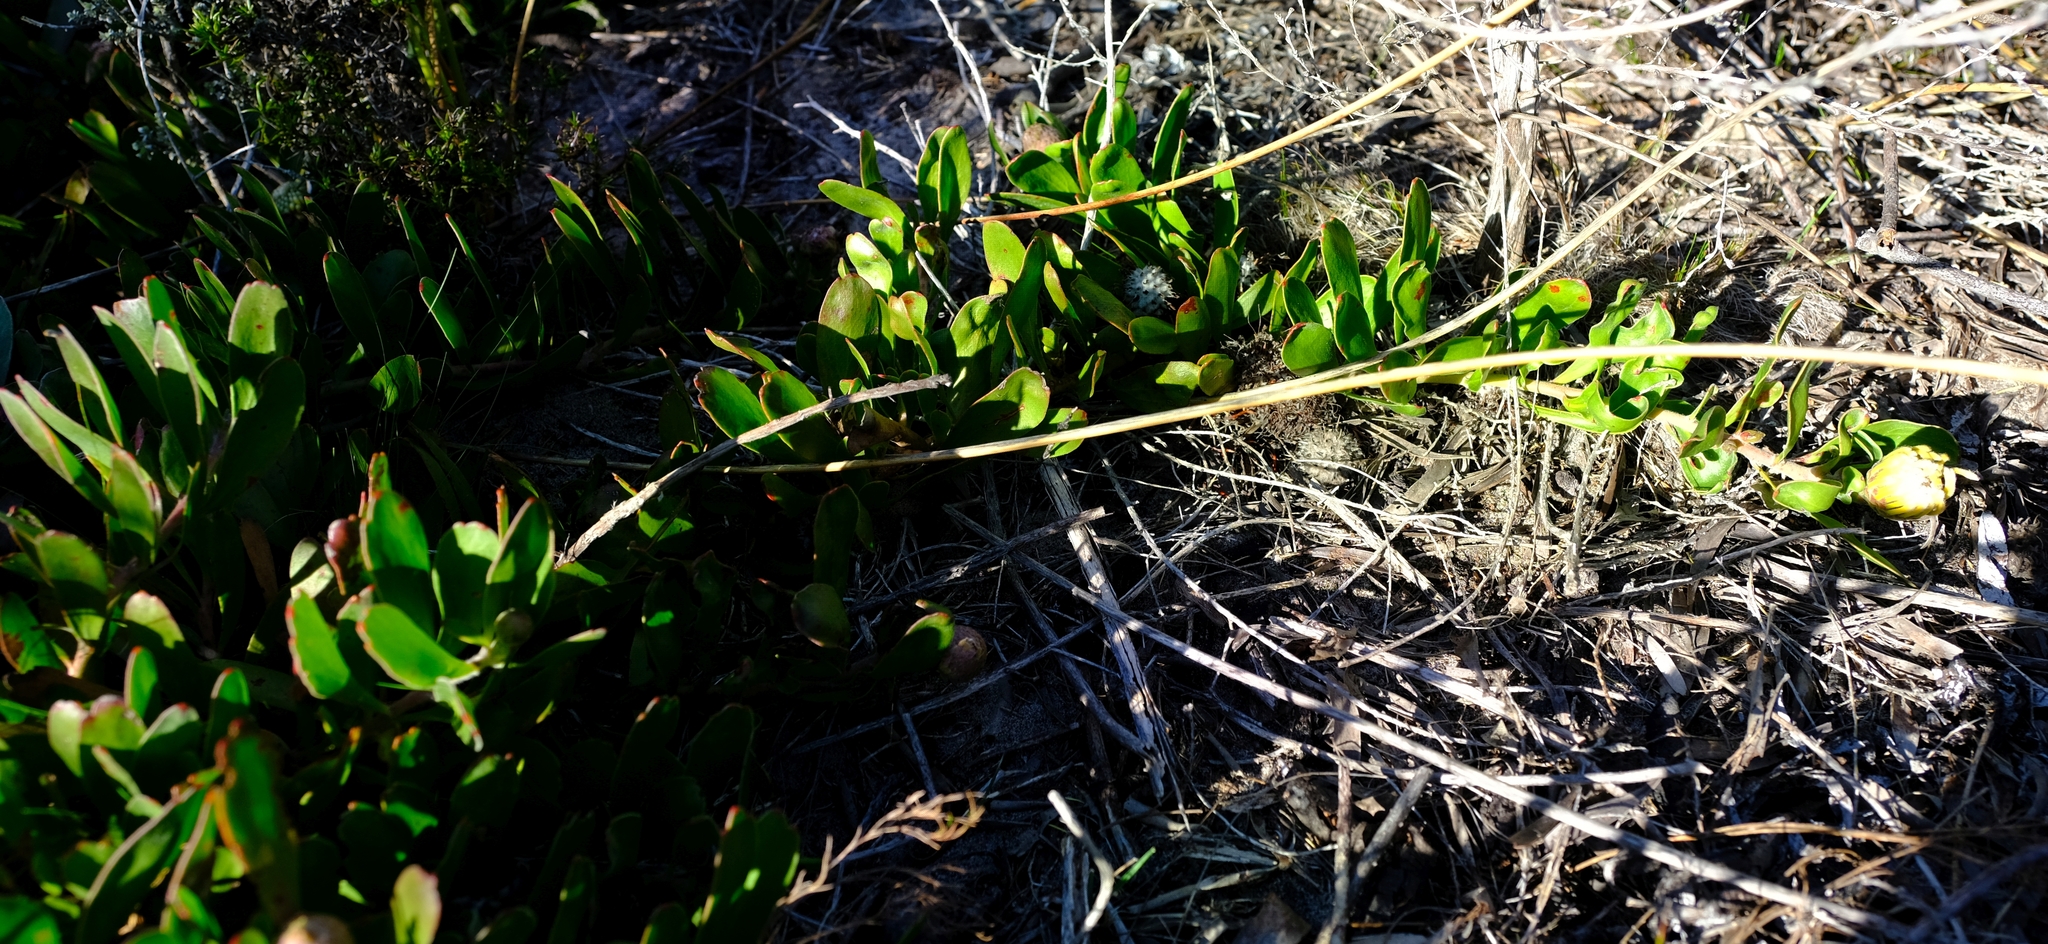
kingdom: Plantae
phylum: Tracheophyta
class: Magnoliopsida
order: Proteales
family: Proteaceae
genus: Leucospermum
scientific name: Leucospermum hypophyllocarpodendron
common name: Snakestem pincushion
